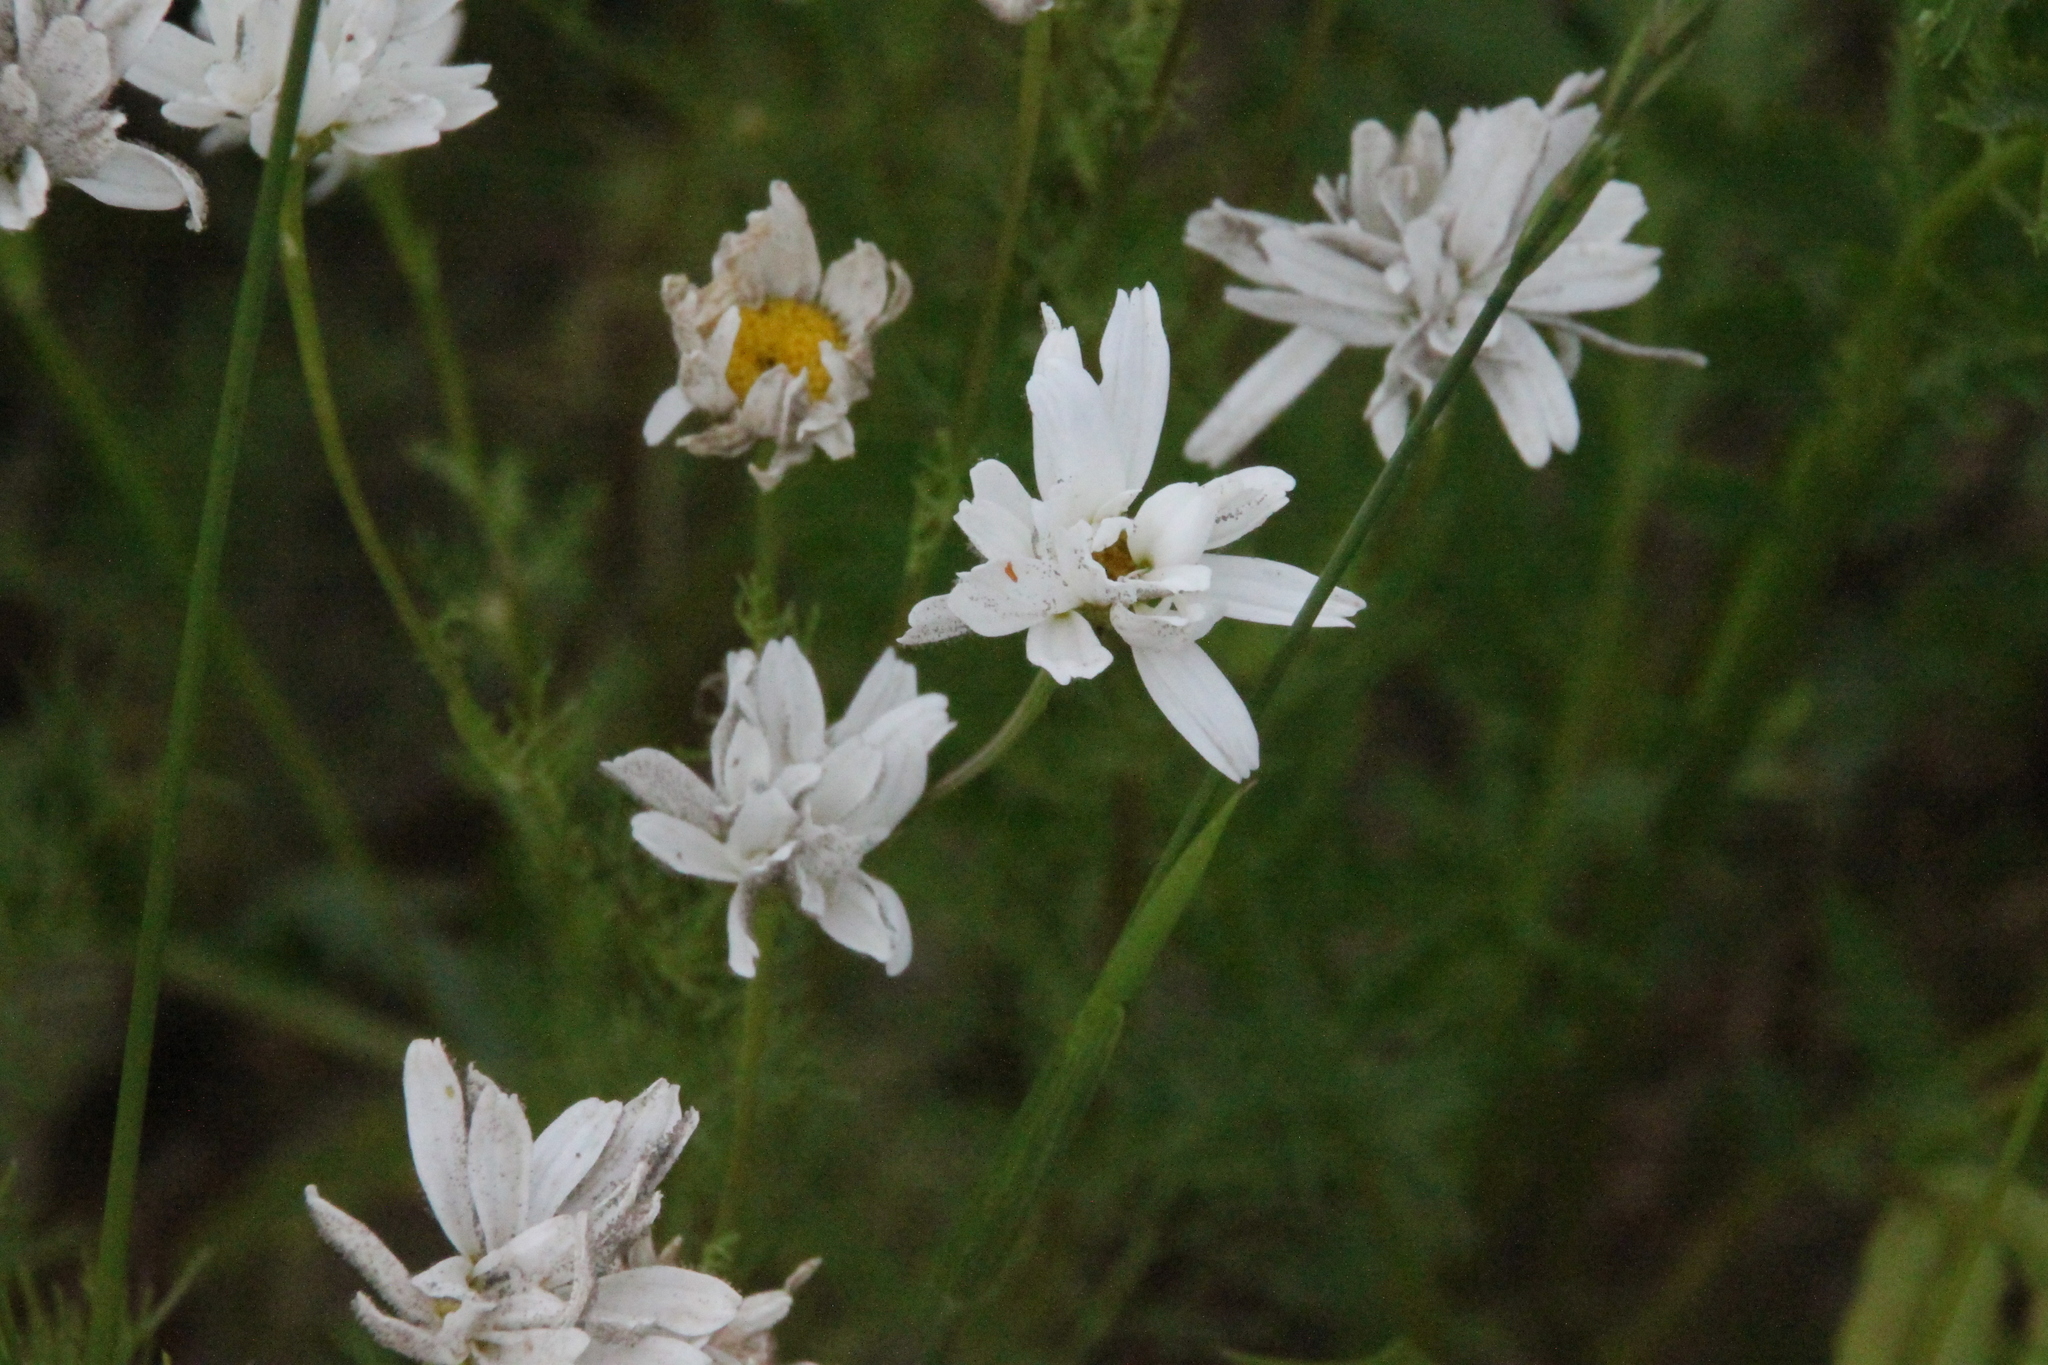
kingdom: Plantae
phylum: Tracheophyta
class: Magnoliopsida
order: Asterales
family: Asteraceae
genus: Tripleurospermum
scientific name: Tripleurospermum inodorum
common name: Scentless mayweed
